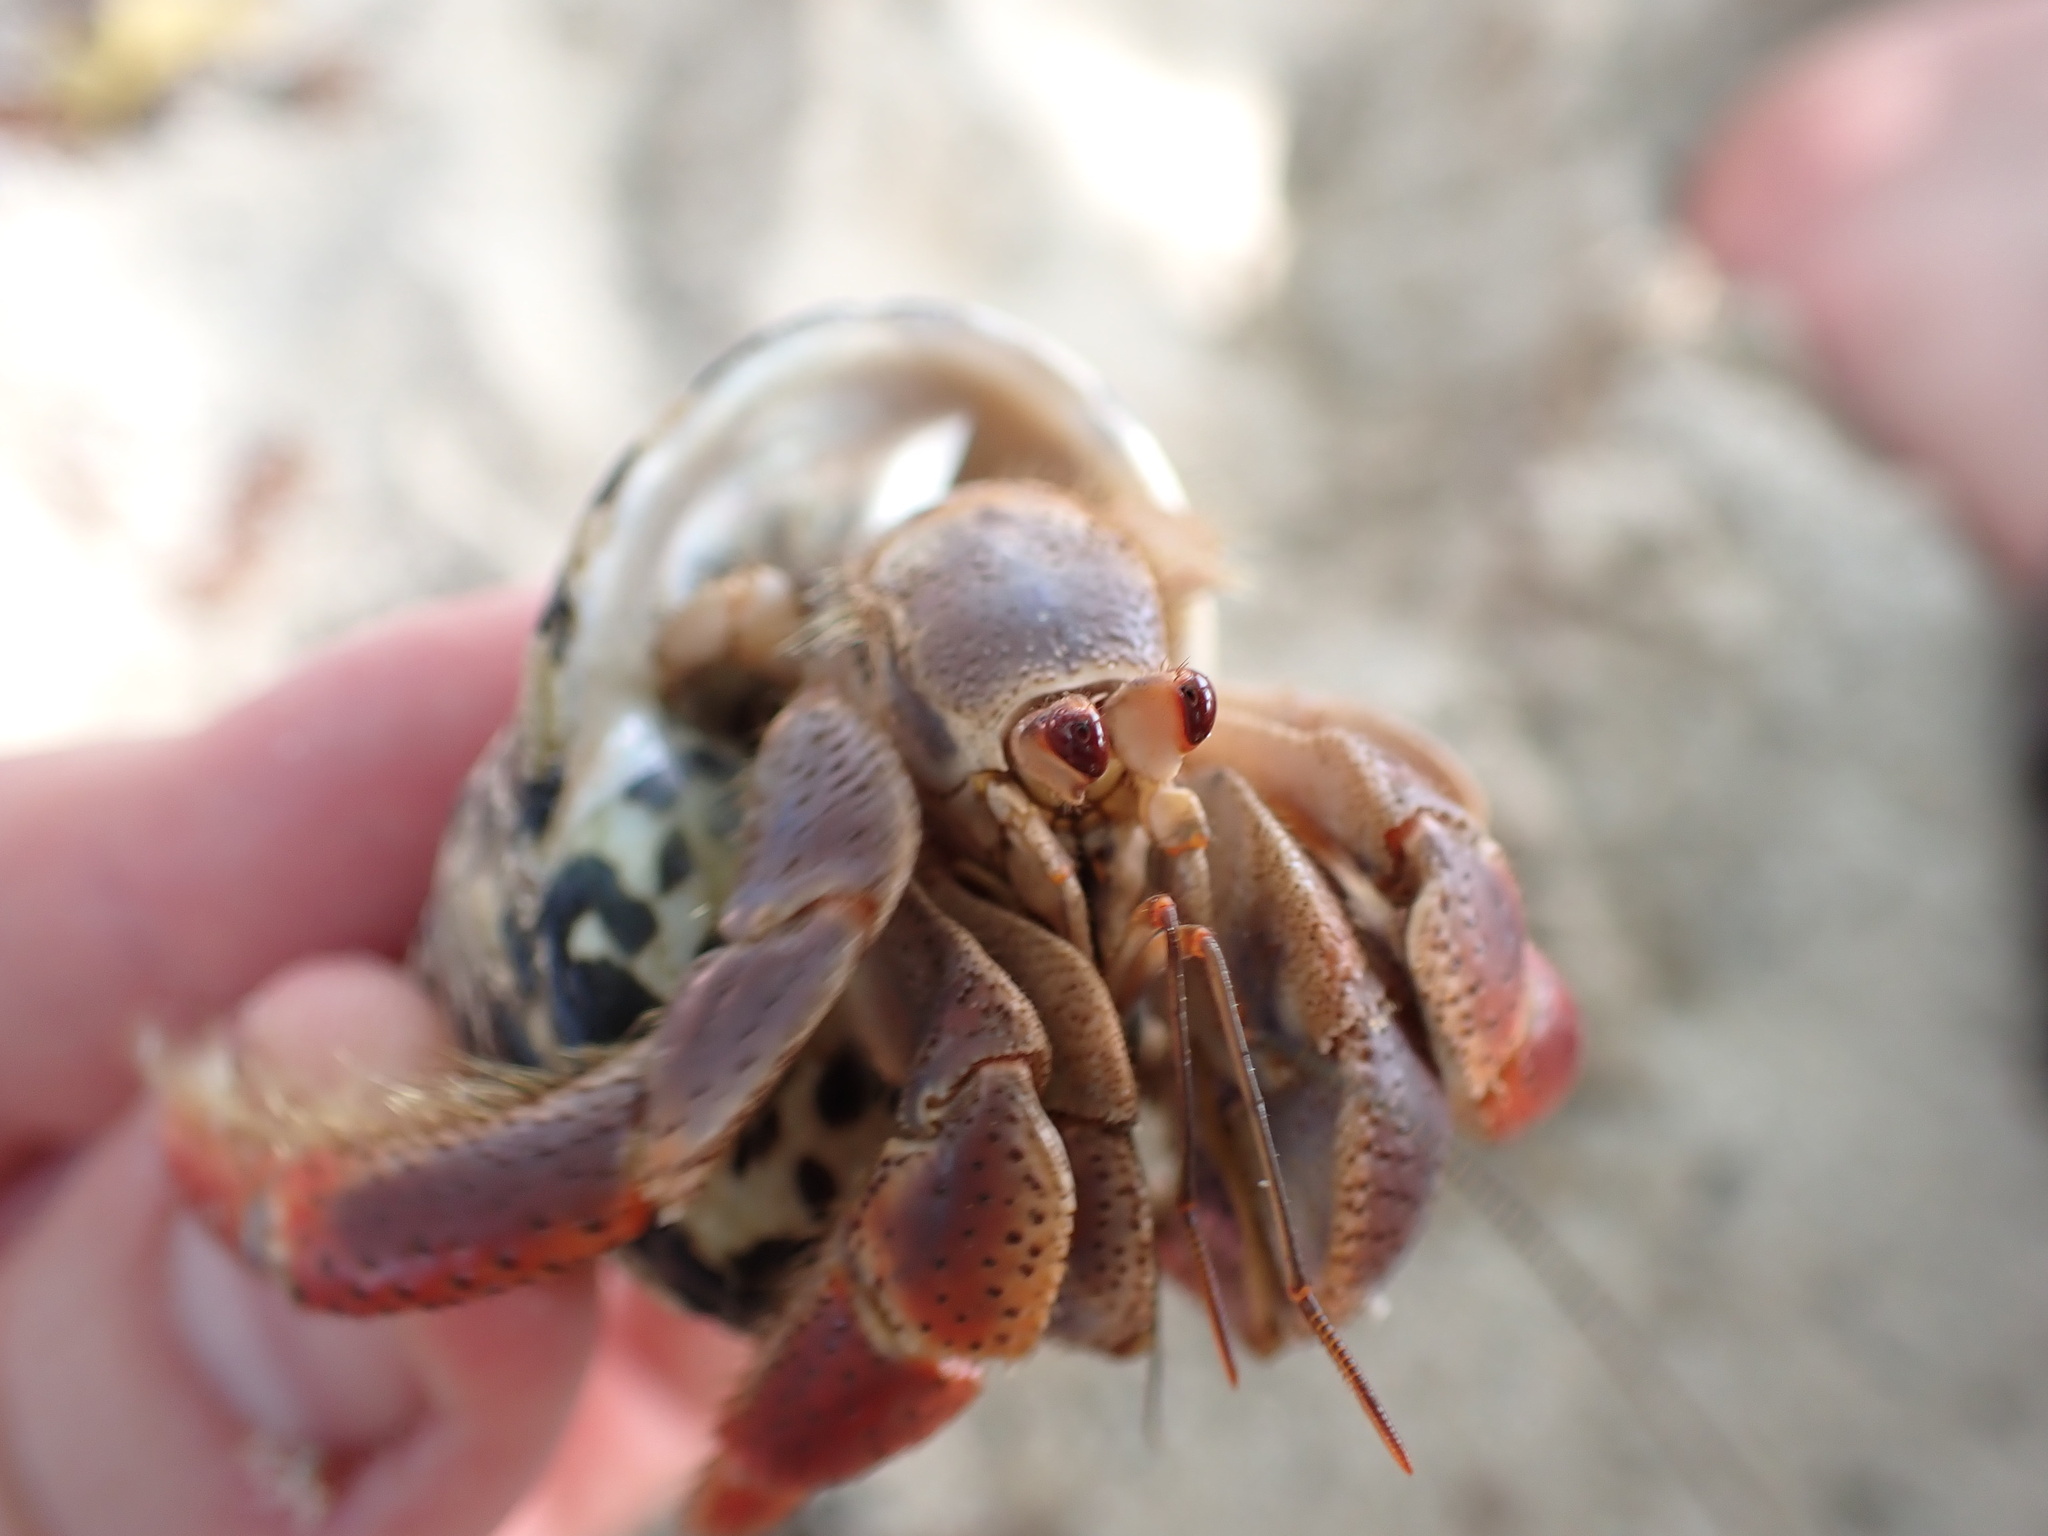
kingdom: Animalia
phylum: Arthropoda
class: Malacostraca
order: Decapoda
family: Coenobitidae
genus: Coenobita
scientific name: Coenobita clypeatus
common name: Caribbean hermit crab
